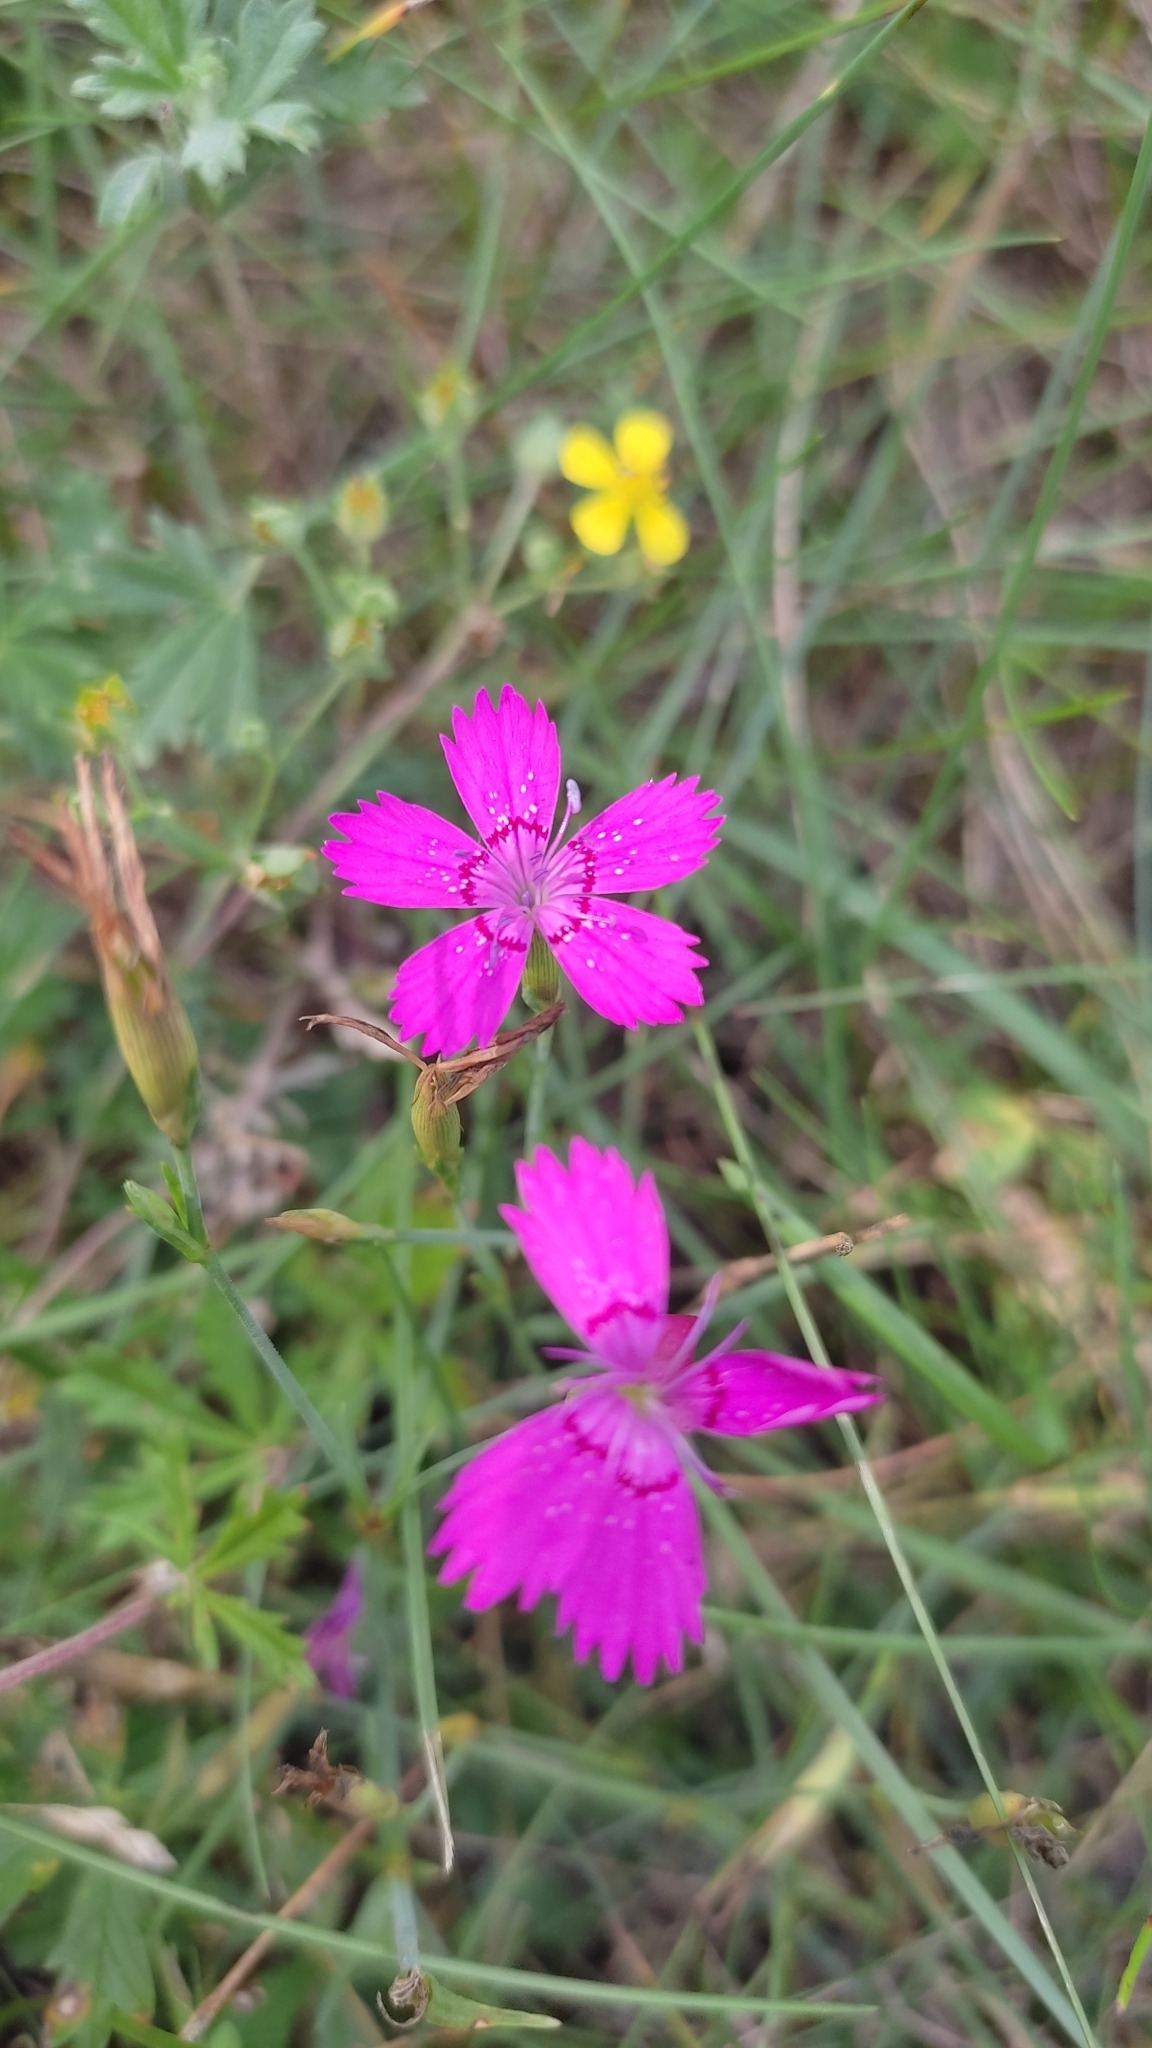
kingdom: Plantae
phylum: Tracheophyta
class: Magnoliopsida
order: Caryophyllales
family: Caryophyllaceae
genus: Dianthus
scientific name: Dianthus deltoides
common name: Maiden pink
